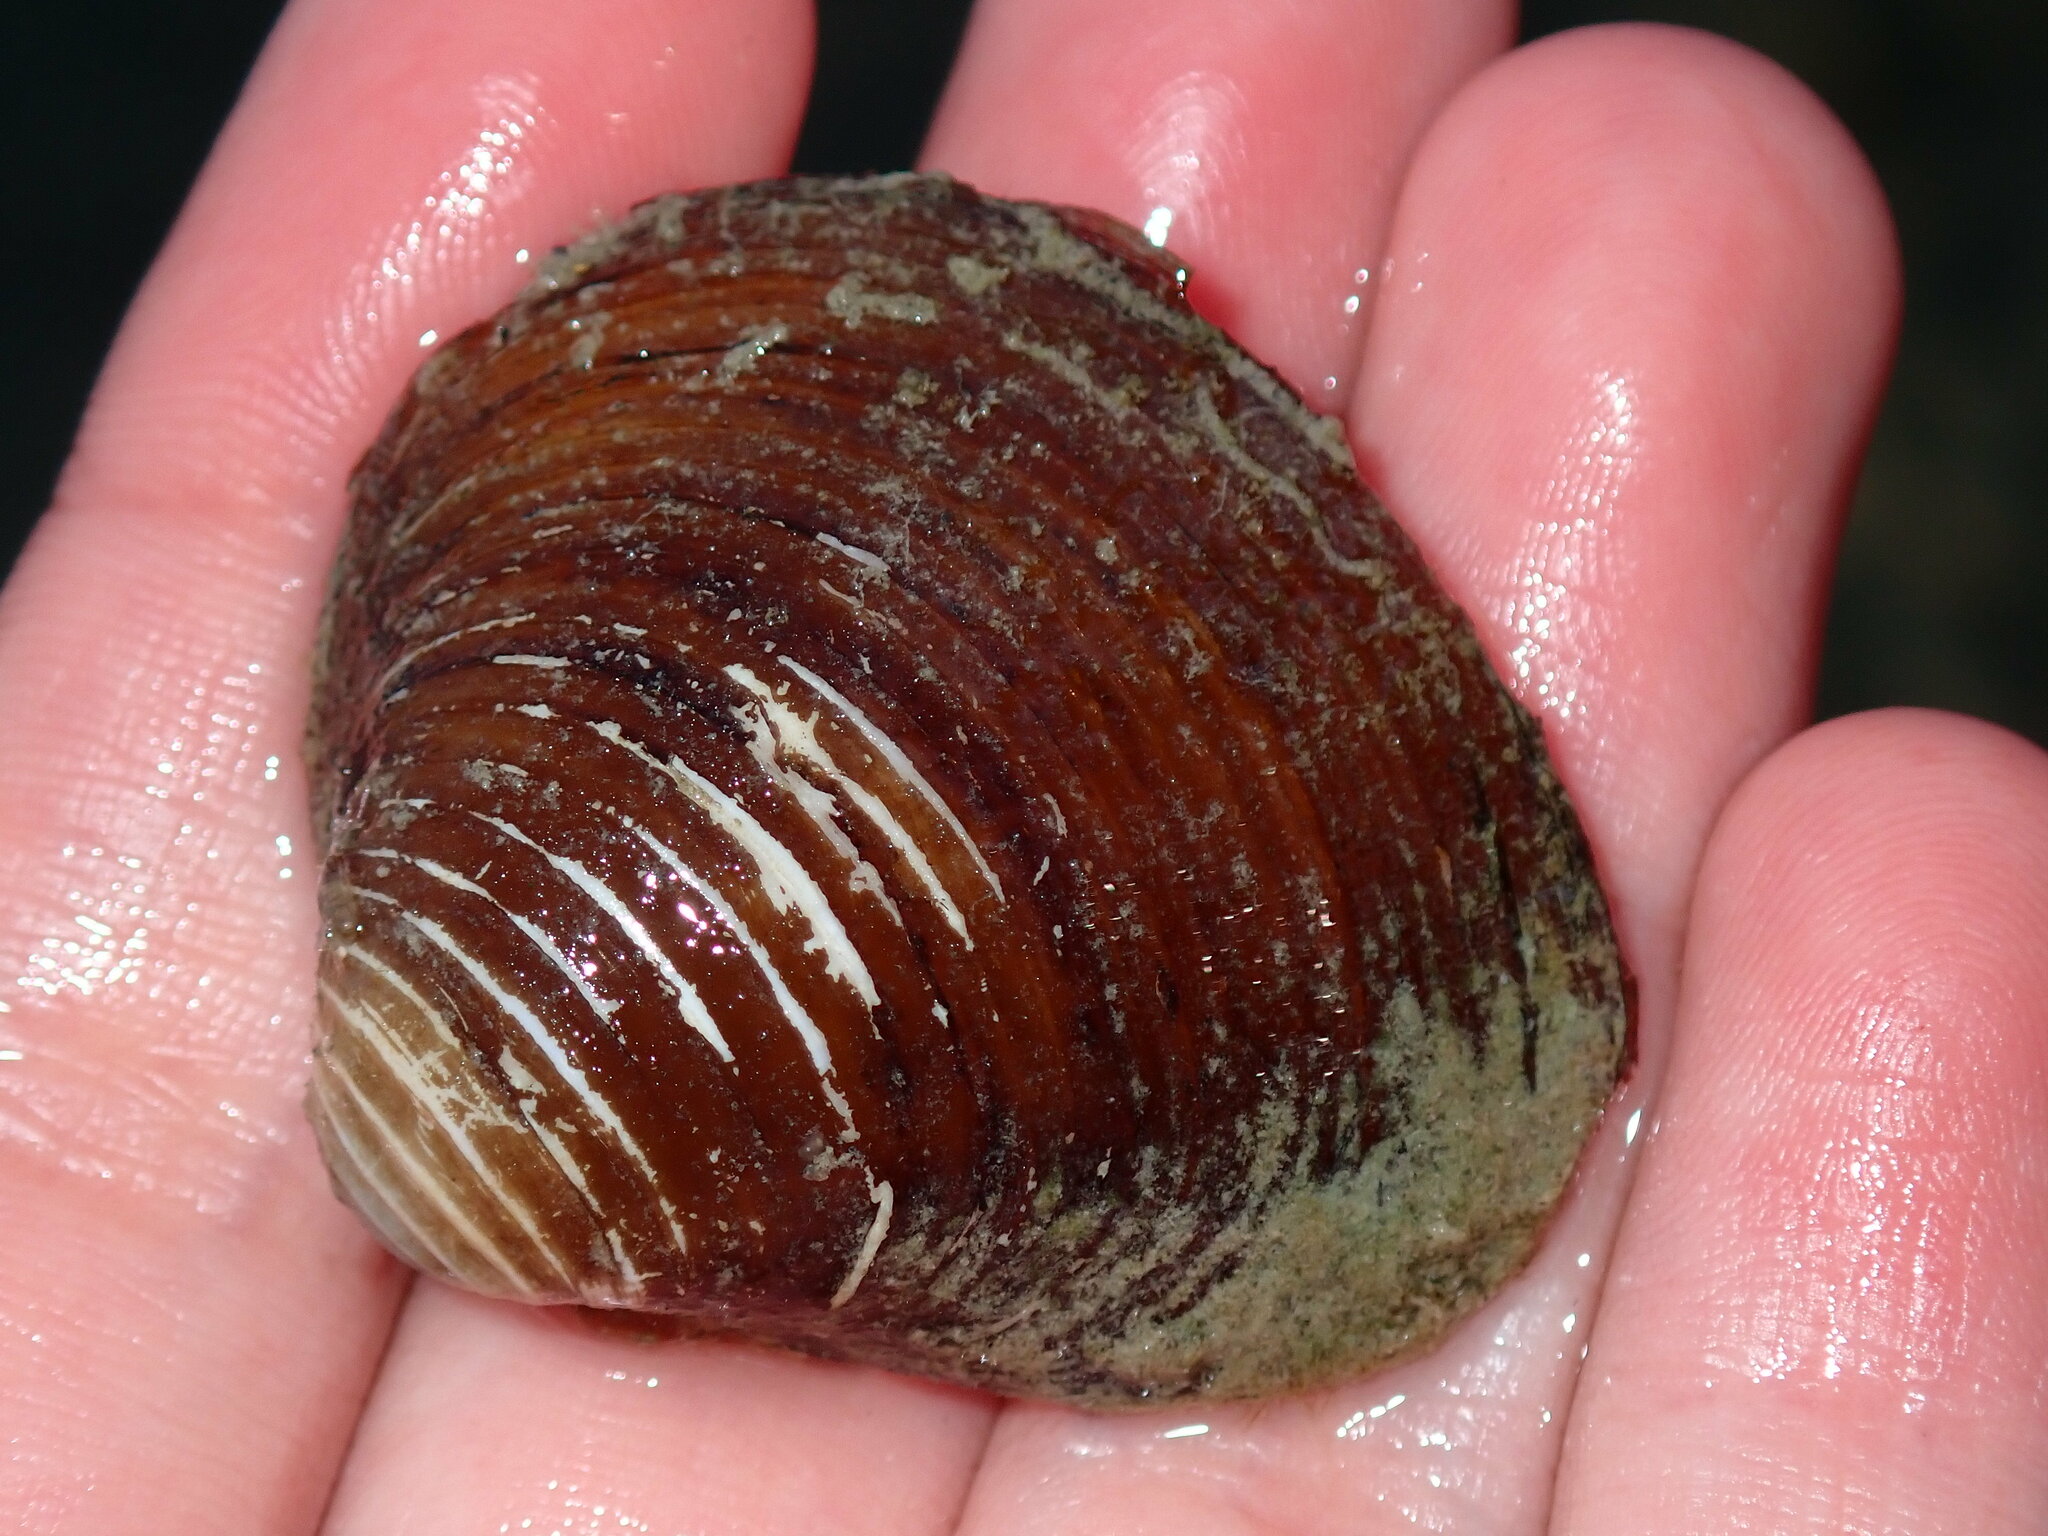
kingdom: Animalia
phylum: Mollusca
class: Bivalvia
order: Venerida
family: Cyrenidae
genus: Corbicula
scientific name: Corbicula fluminea
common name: Asian clam
